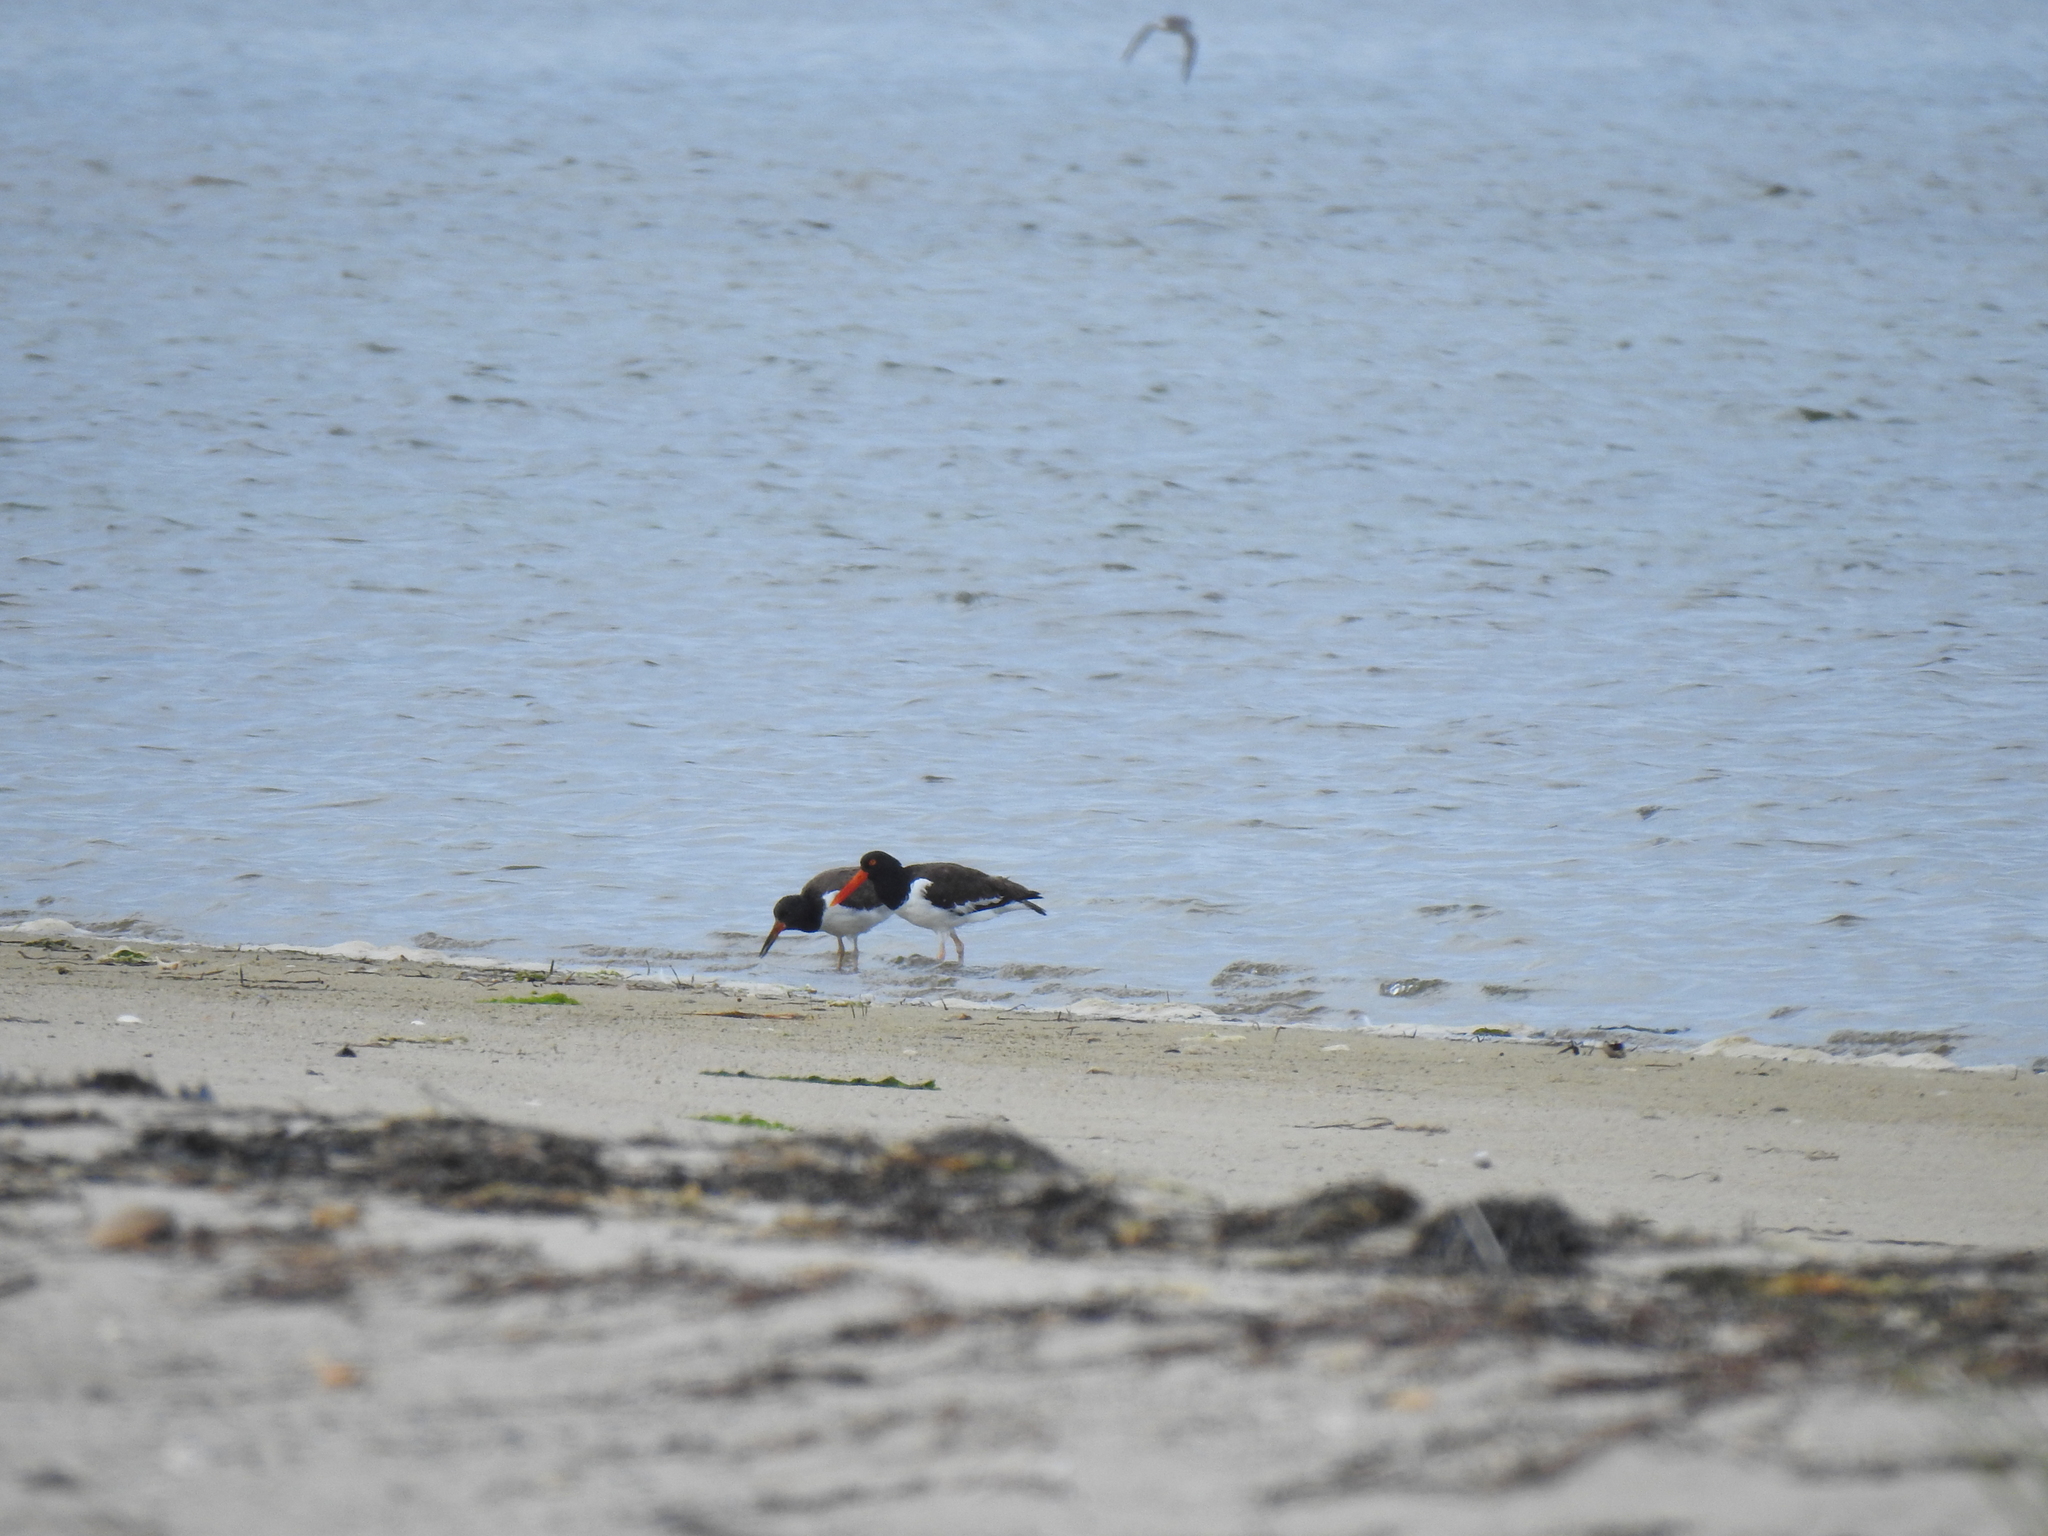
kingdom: Animalia
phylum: Chordata
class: Aves
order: Charadriiformes
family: Haematopodidae
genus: Haematopus
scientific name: Haematopus palliatus
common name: American oystercatcher
